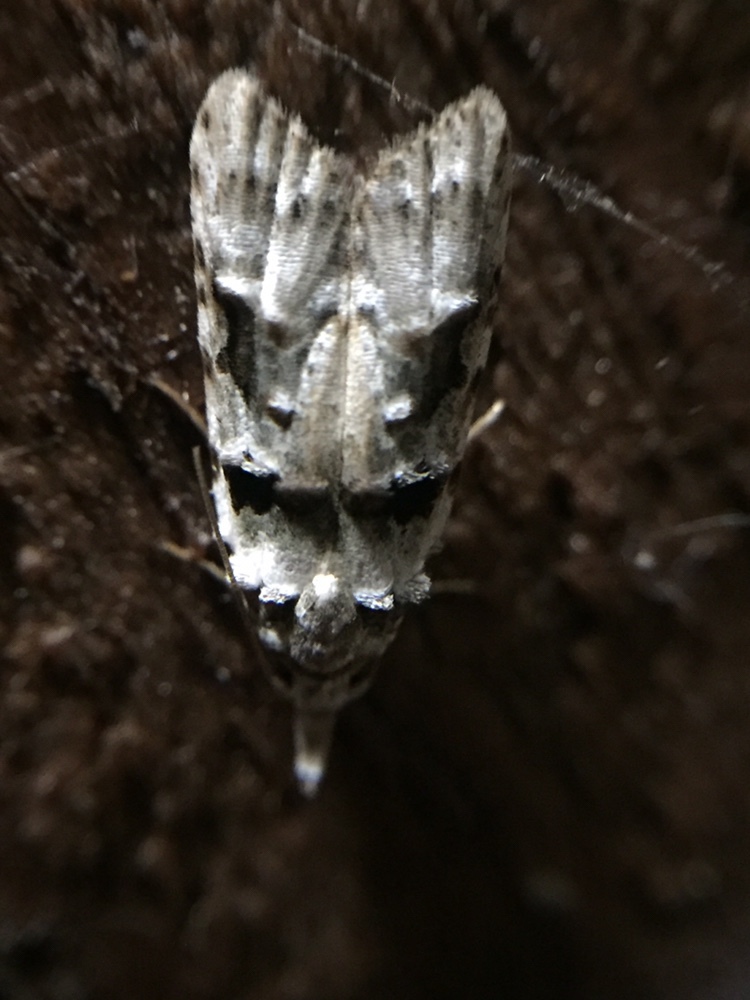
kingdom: Animalia
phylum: Arthropoda
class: Insecta
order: Lepidoptera
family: Carposinidae
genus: Coscinoptycha
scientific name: Coscinoptycha improbana
